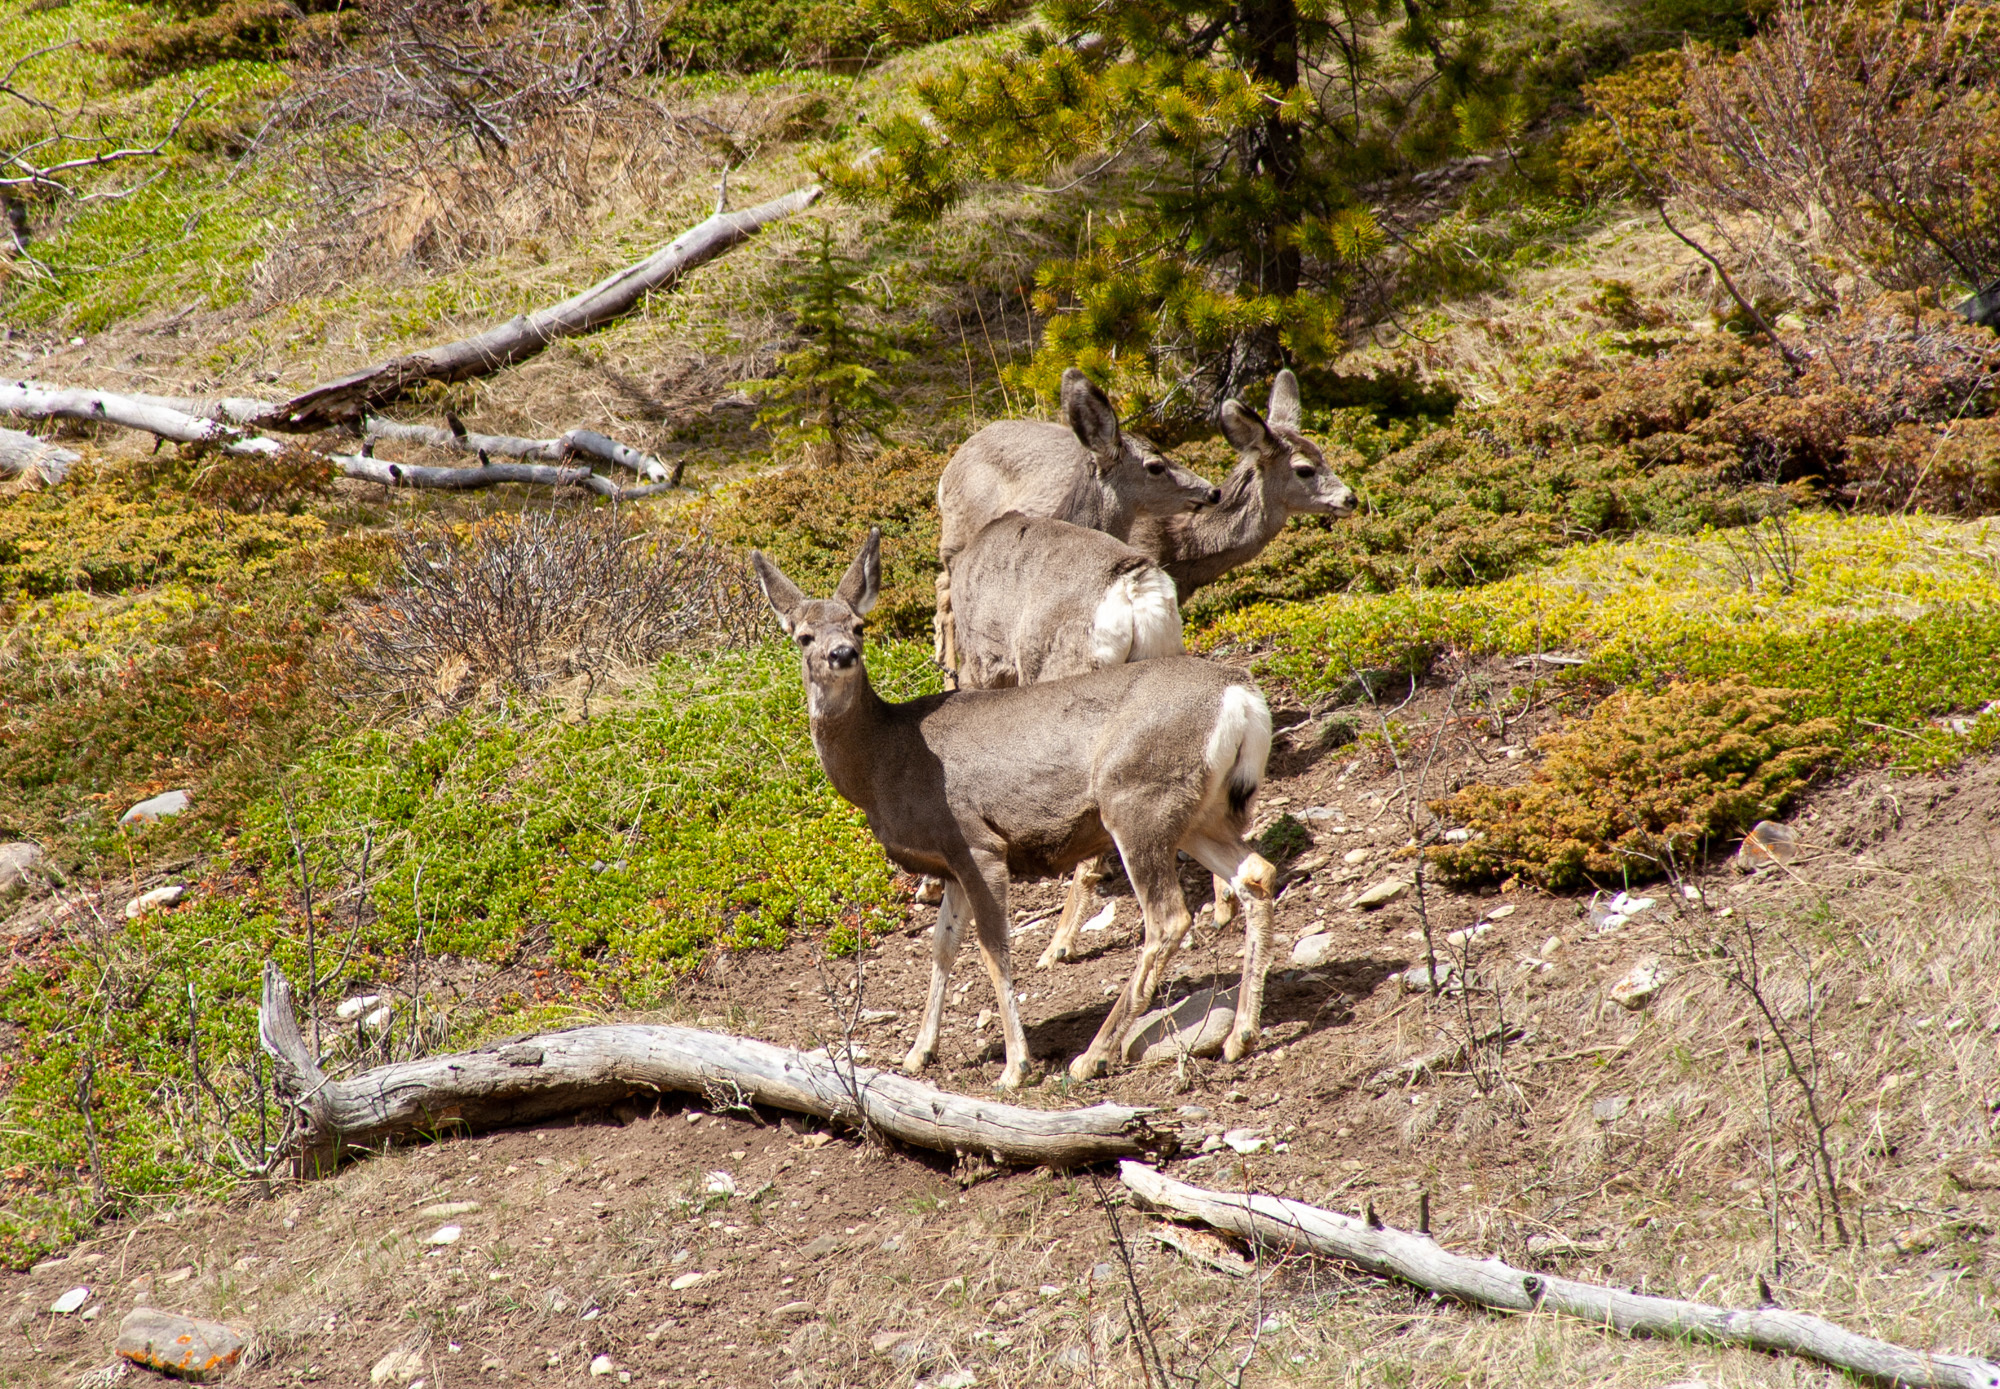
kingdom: Animalia
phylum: Chordata
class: Mammalia
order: Artiodactyla
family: Cervidae
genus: Odocoileus
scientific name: Odocoileus hemionus
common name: Mule deer
